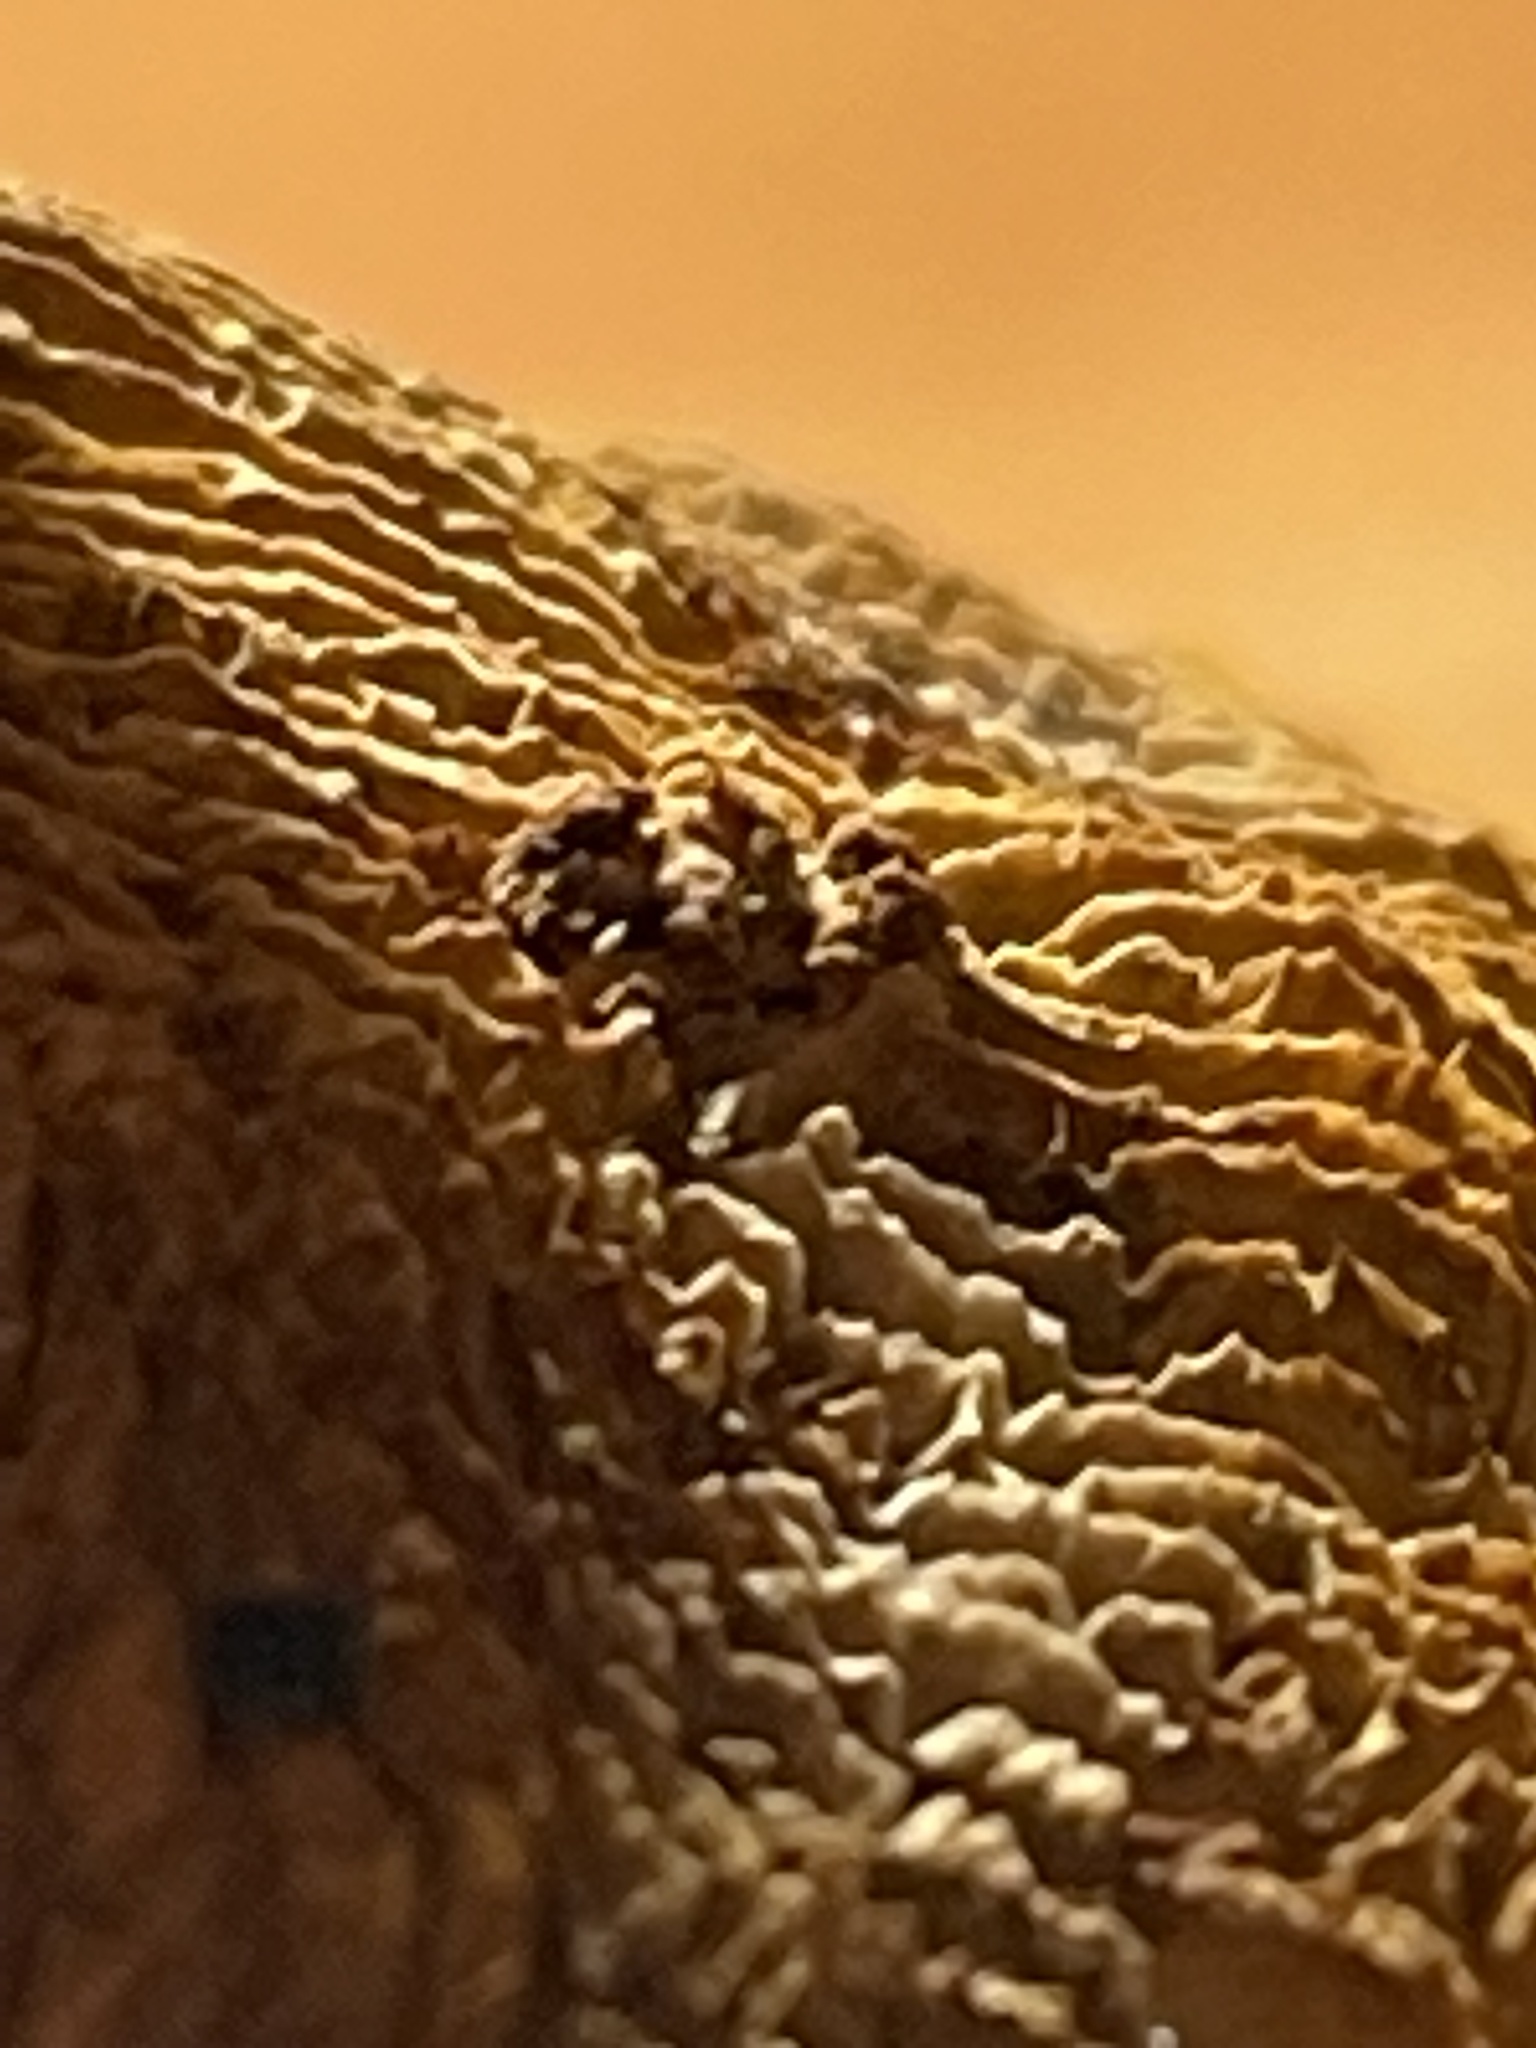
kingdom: Fungi
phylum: Basidiomycota
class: Agaricomycetes
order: Gloeophyllales
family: Gloeophyllaceae
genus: Gloeophyllum
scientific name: Gloeophyllum sepiarium
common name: Conifer mazegill
